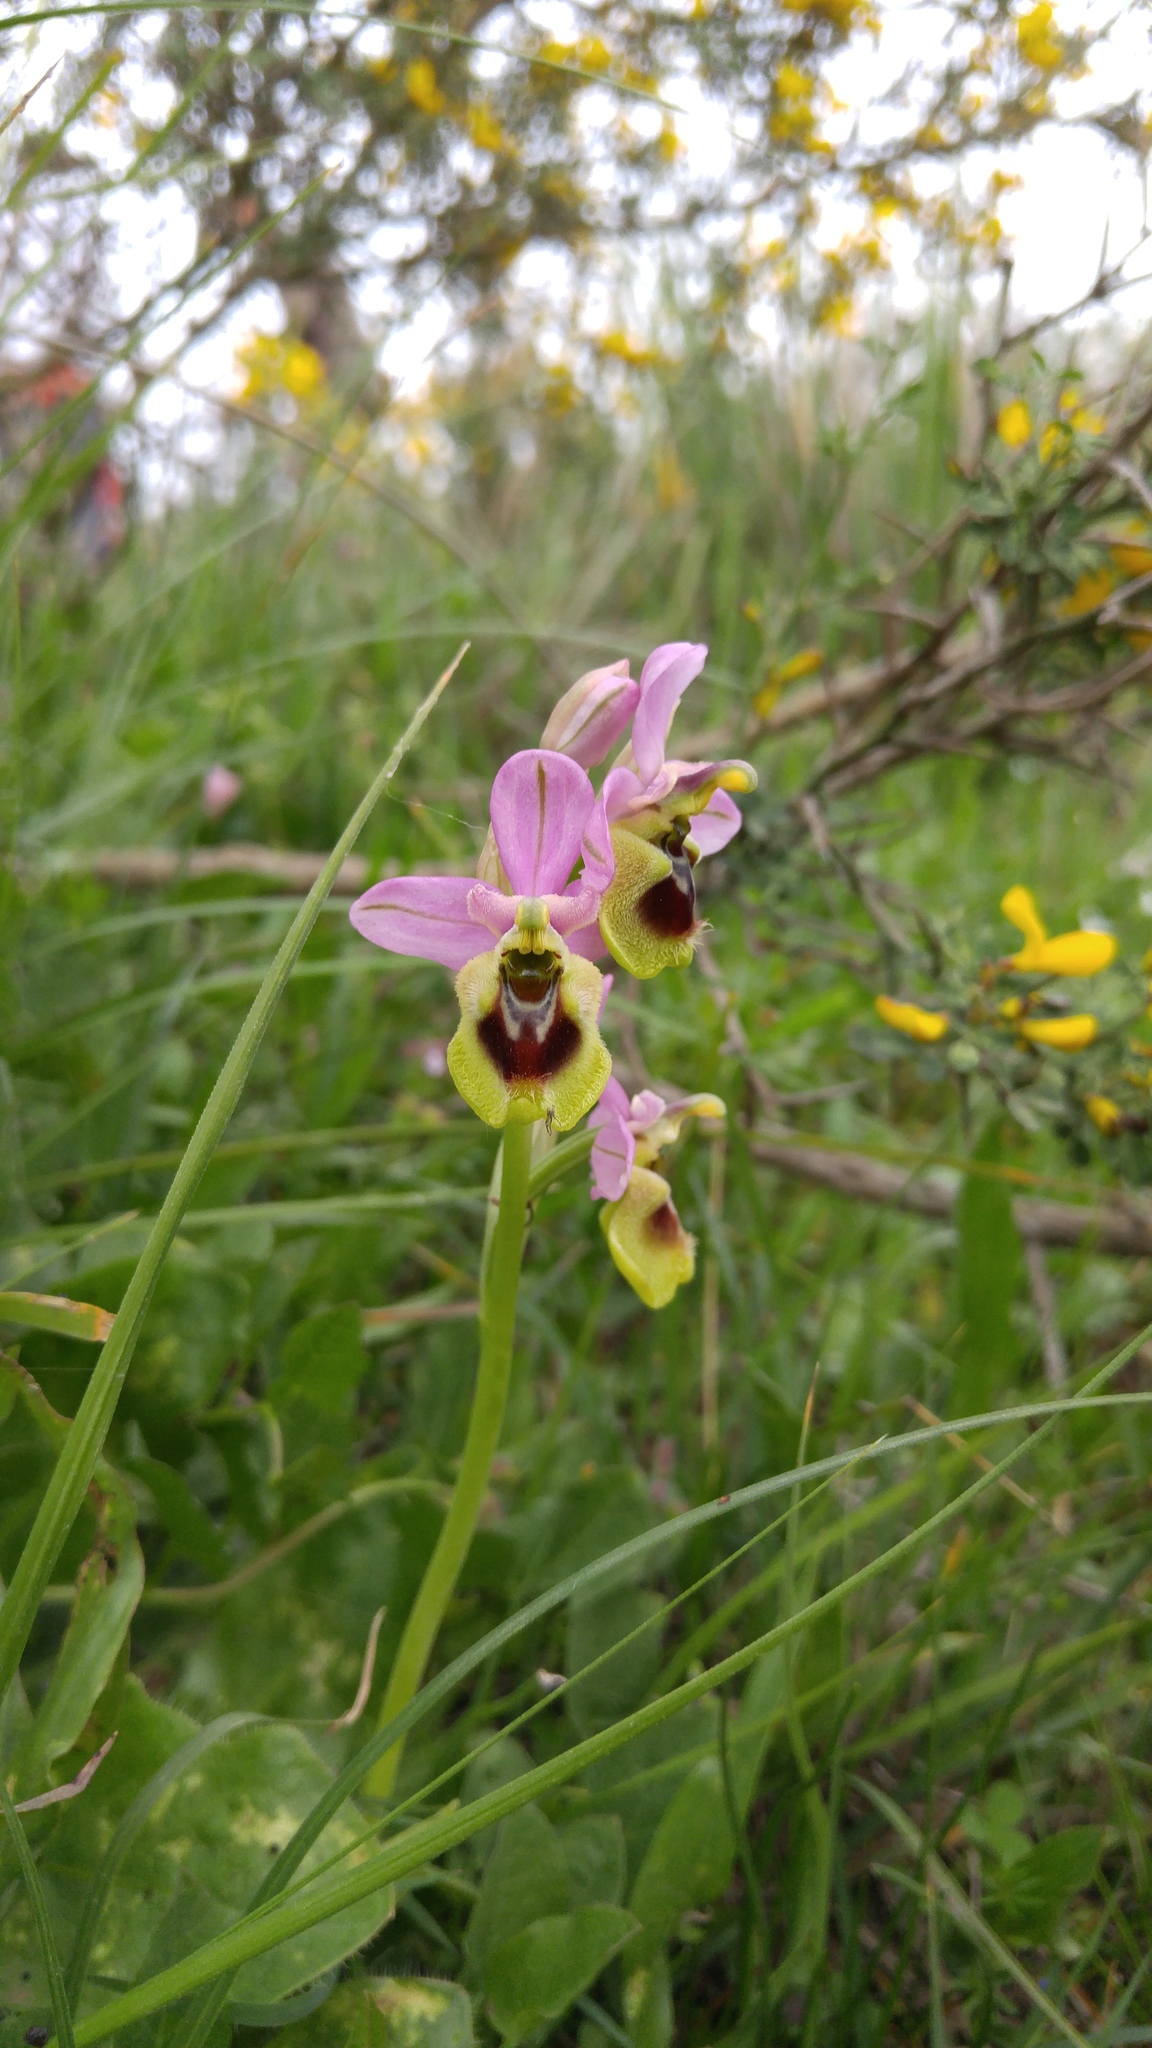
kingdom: Plantae
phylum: Tracheophyta
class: Liliopsida
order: Asparagales
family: Orchidaceae
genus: Ophrys
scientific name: Ophrys tenthredinifera
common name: Sawfly orchid
